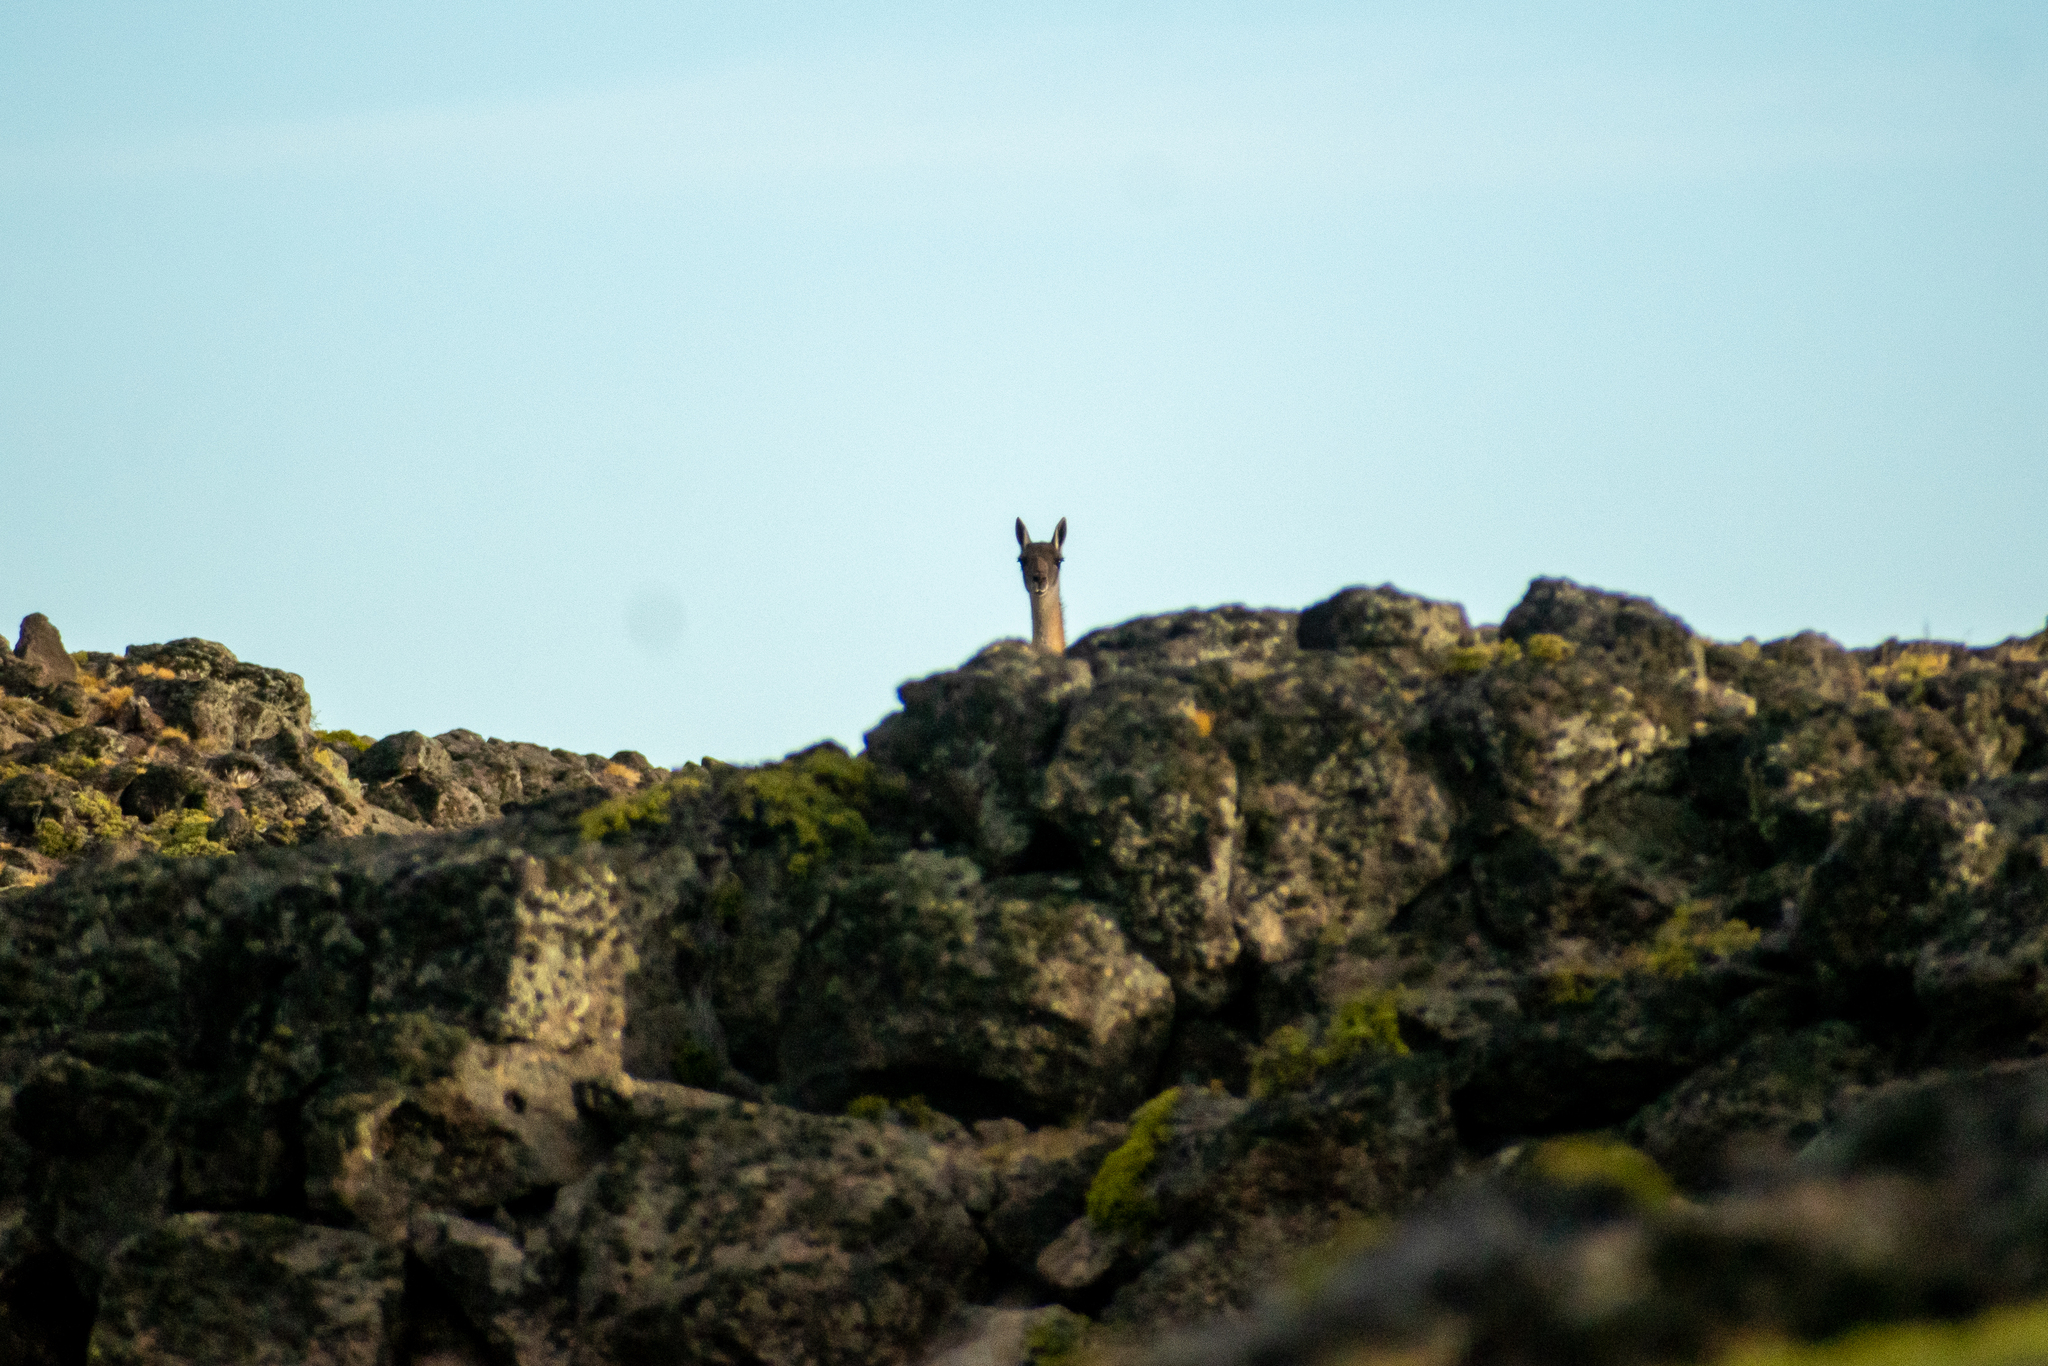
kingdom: Animalia
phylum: Chordata
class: Mammalia
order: Artiodactyla
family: Camelidae
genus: Lama
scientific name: Lama glama
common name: Llama
